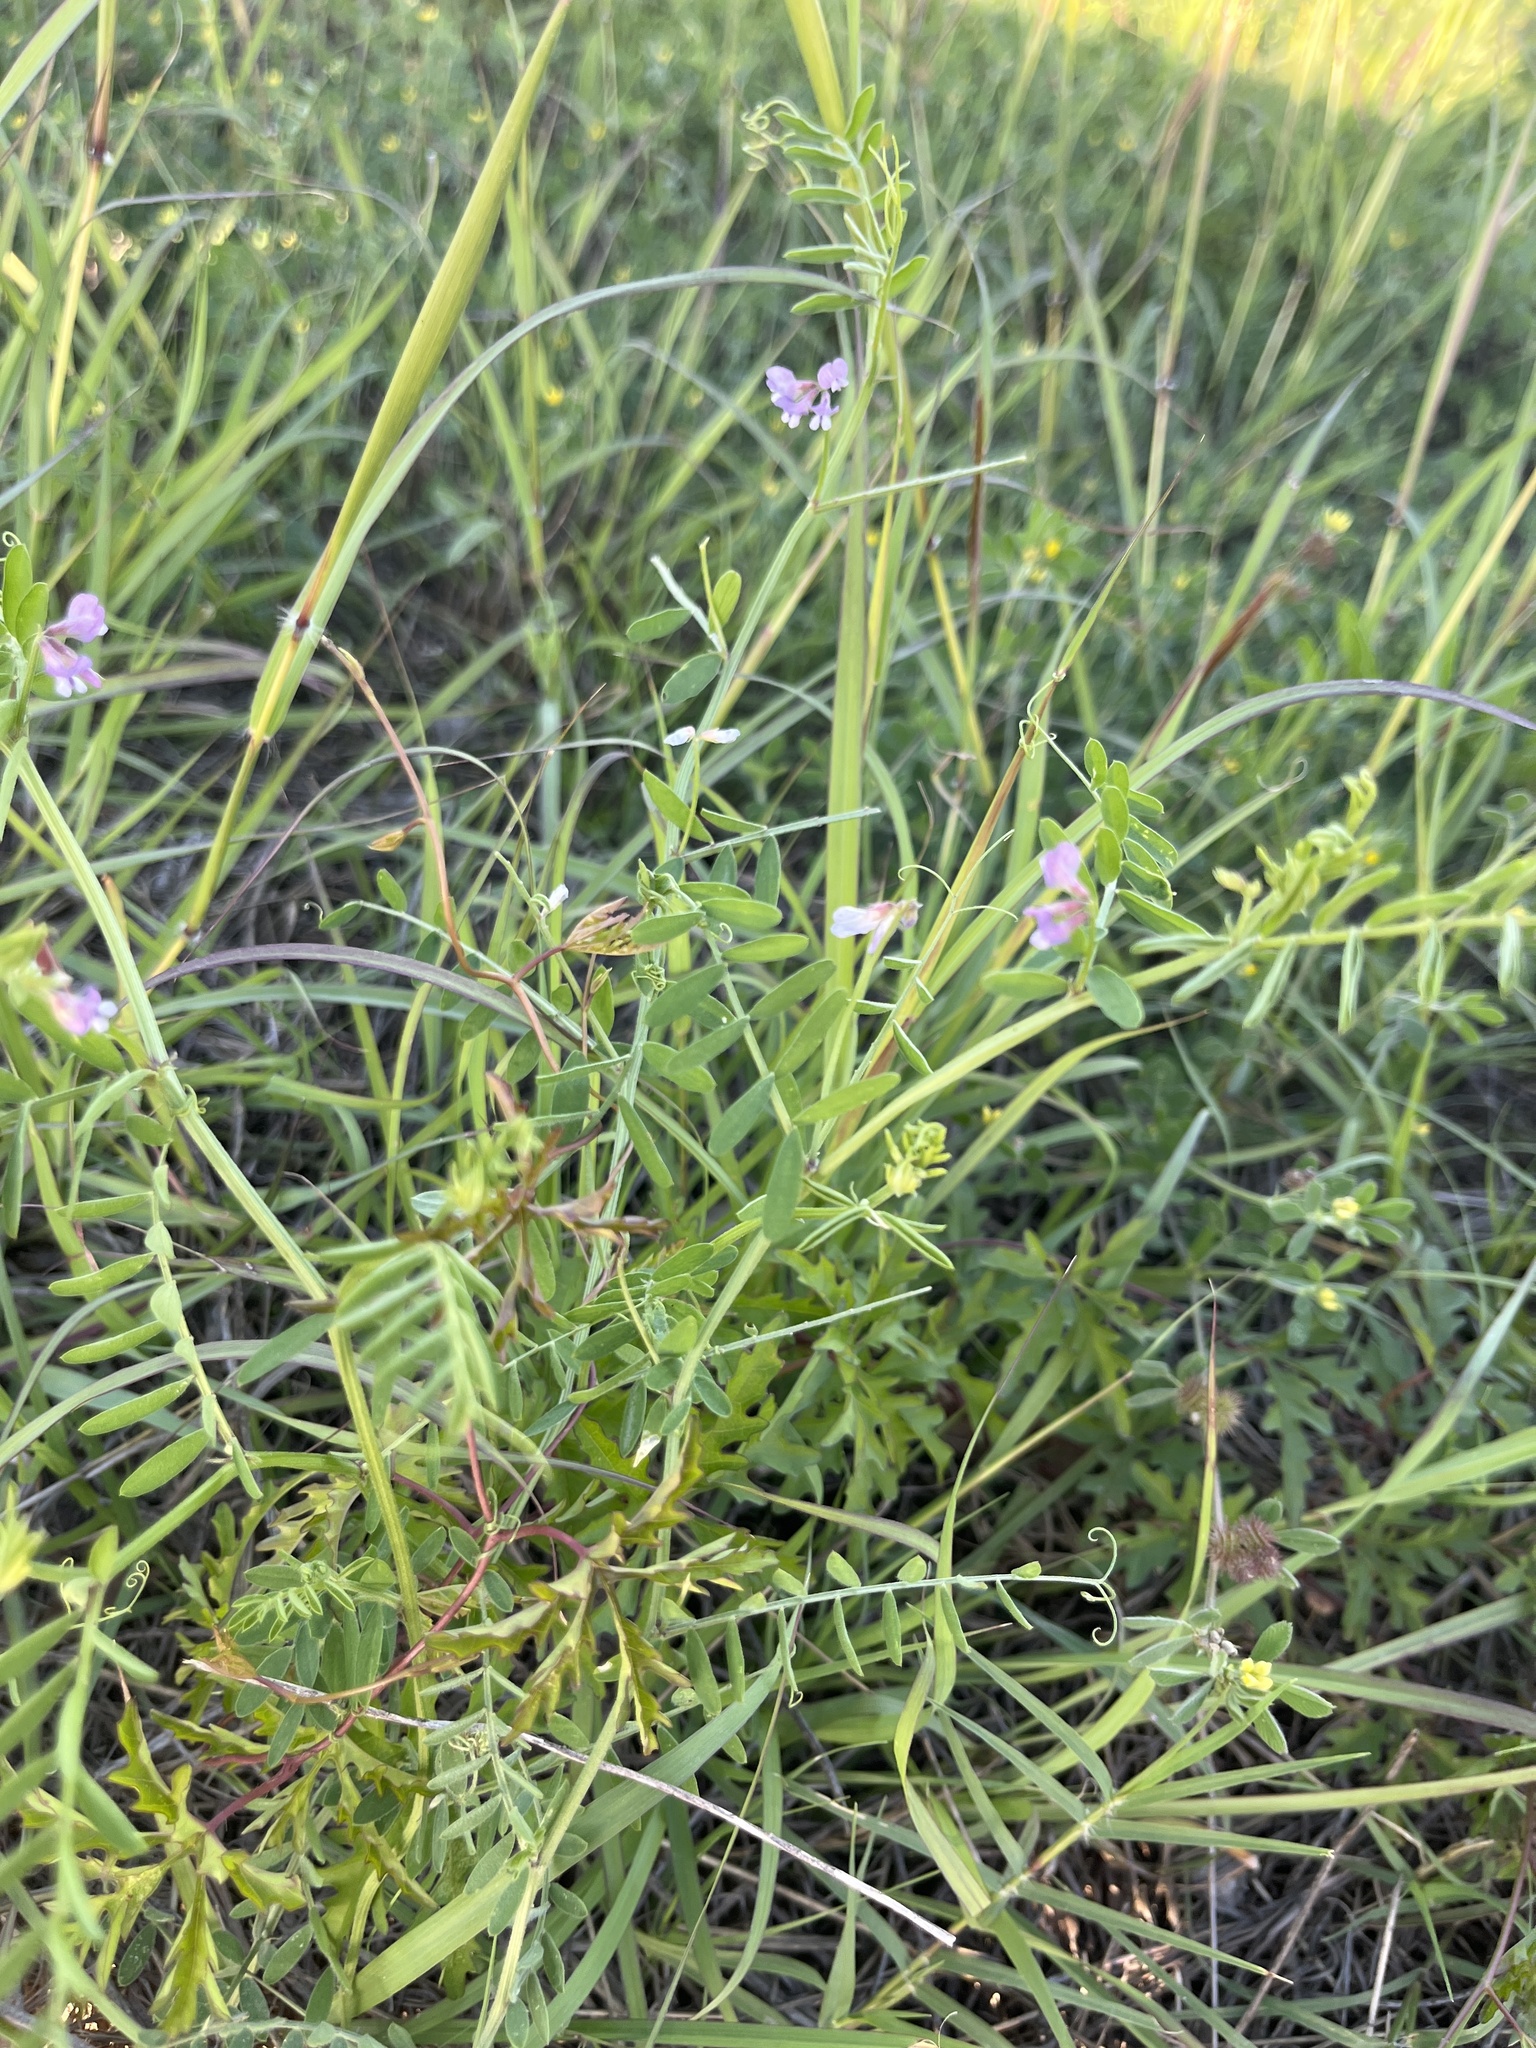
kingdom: Plantae
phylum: Tracheophyta
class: Magnoliopsida
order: Fabales
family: Fabaceae
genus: Vicia
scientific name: Vicia ludoviciana
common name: Louisiana vetch
